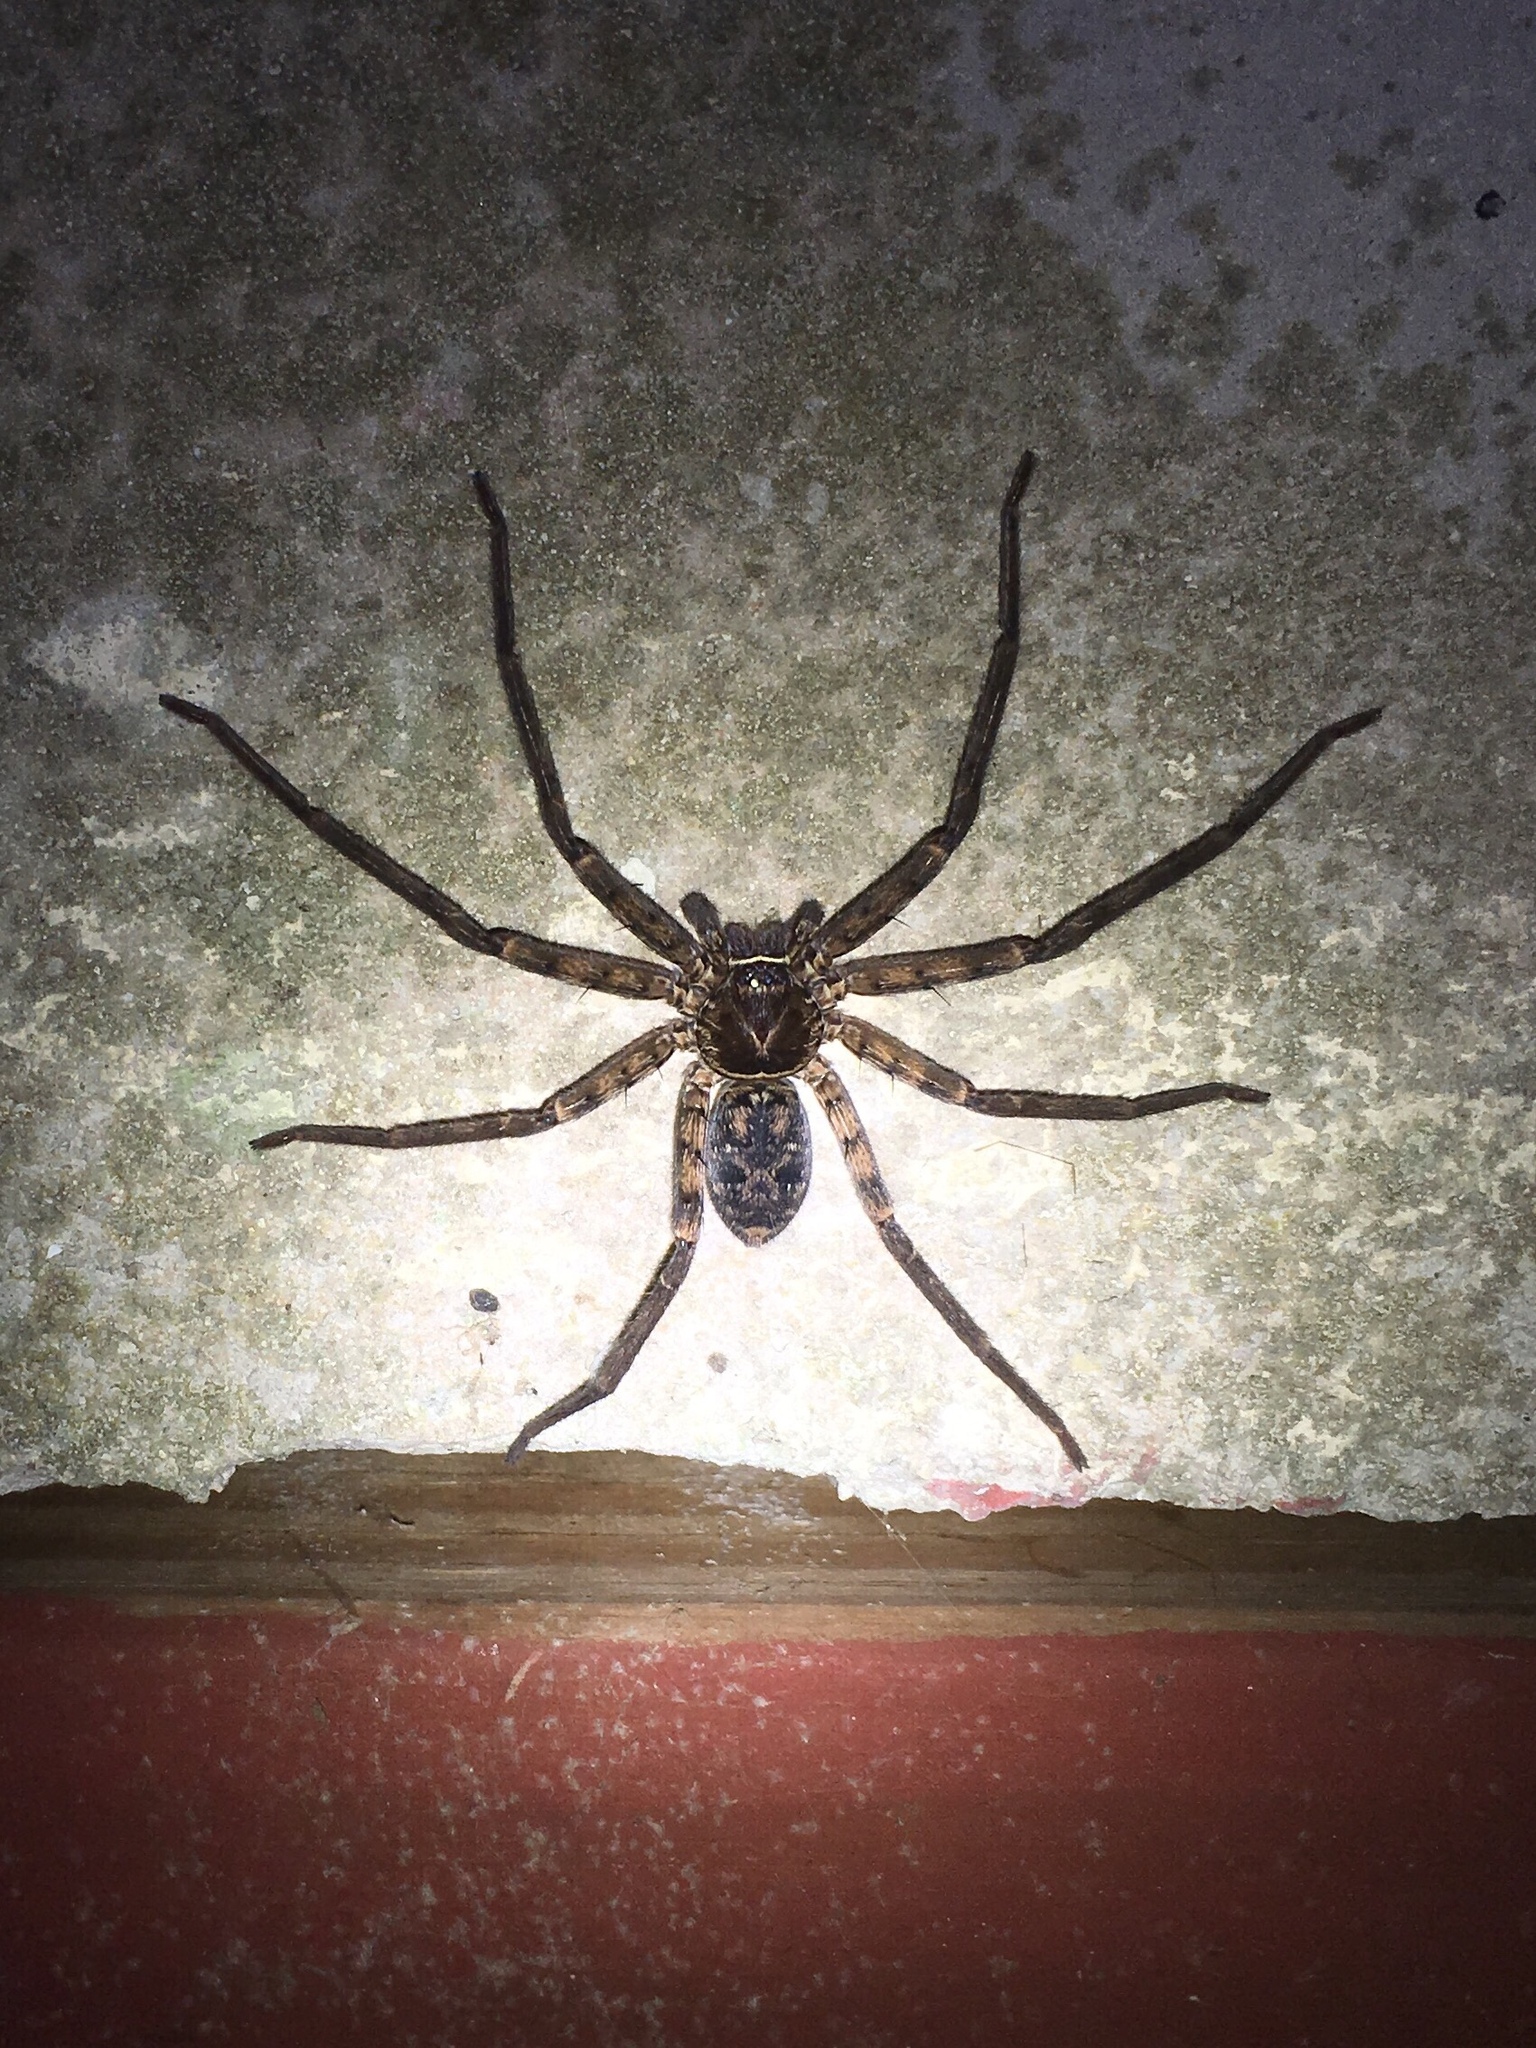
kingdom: Animalia
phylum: Arthropoda
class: Arachnida
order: Araneae
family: Sparassidae
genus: Heteropoda
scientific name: Heteropoda venatoria
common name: Huntsman spider
